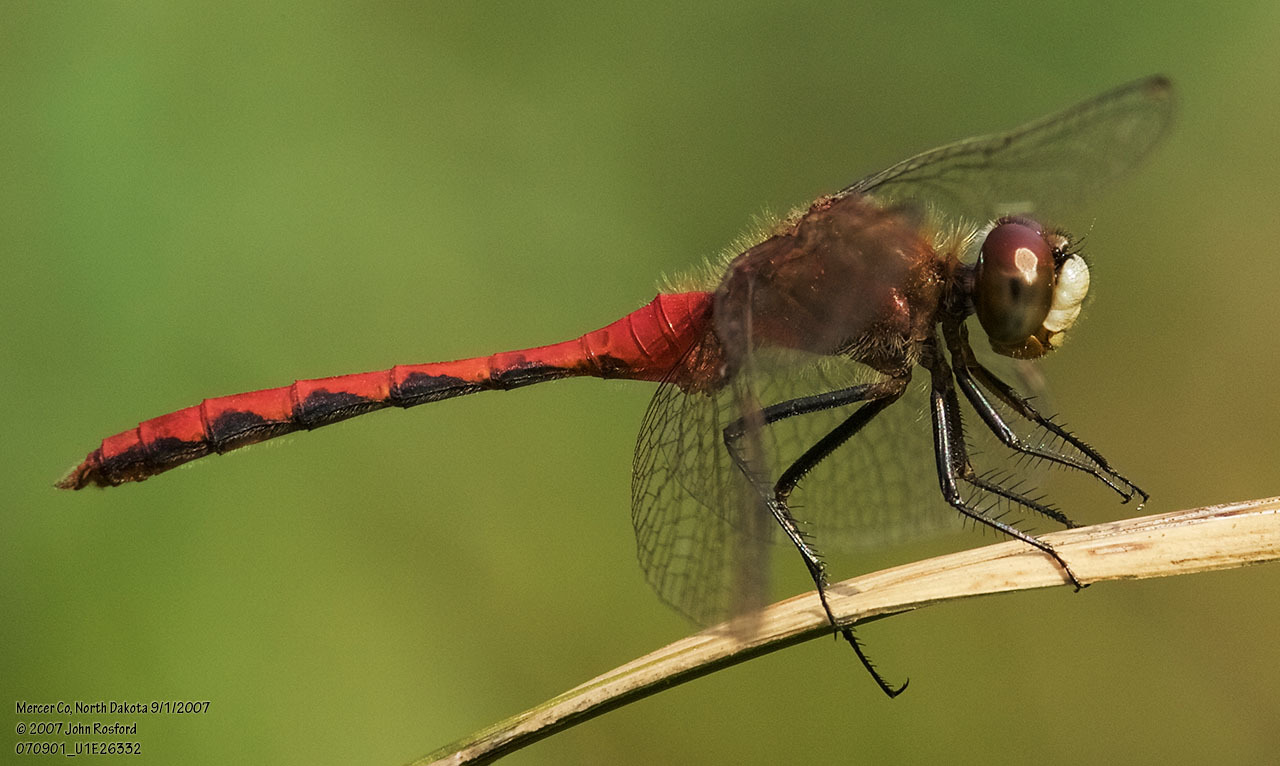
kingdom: Animalia
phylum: Arthropoda
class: Insecta
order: Odonata
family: Libellulidae
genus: Sympetrum
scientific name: Sympetrum obtrusum
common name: White-faced meadowhawk
